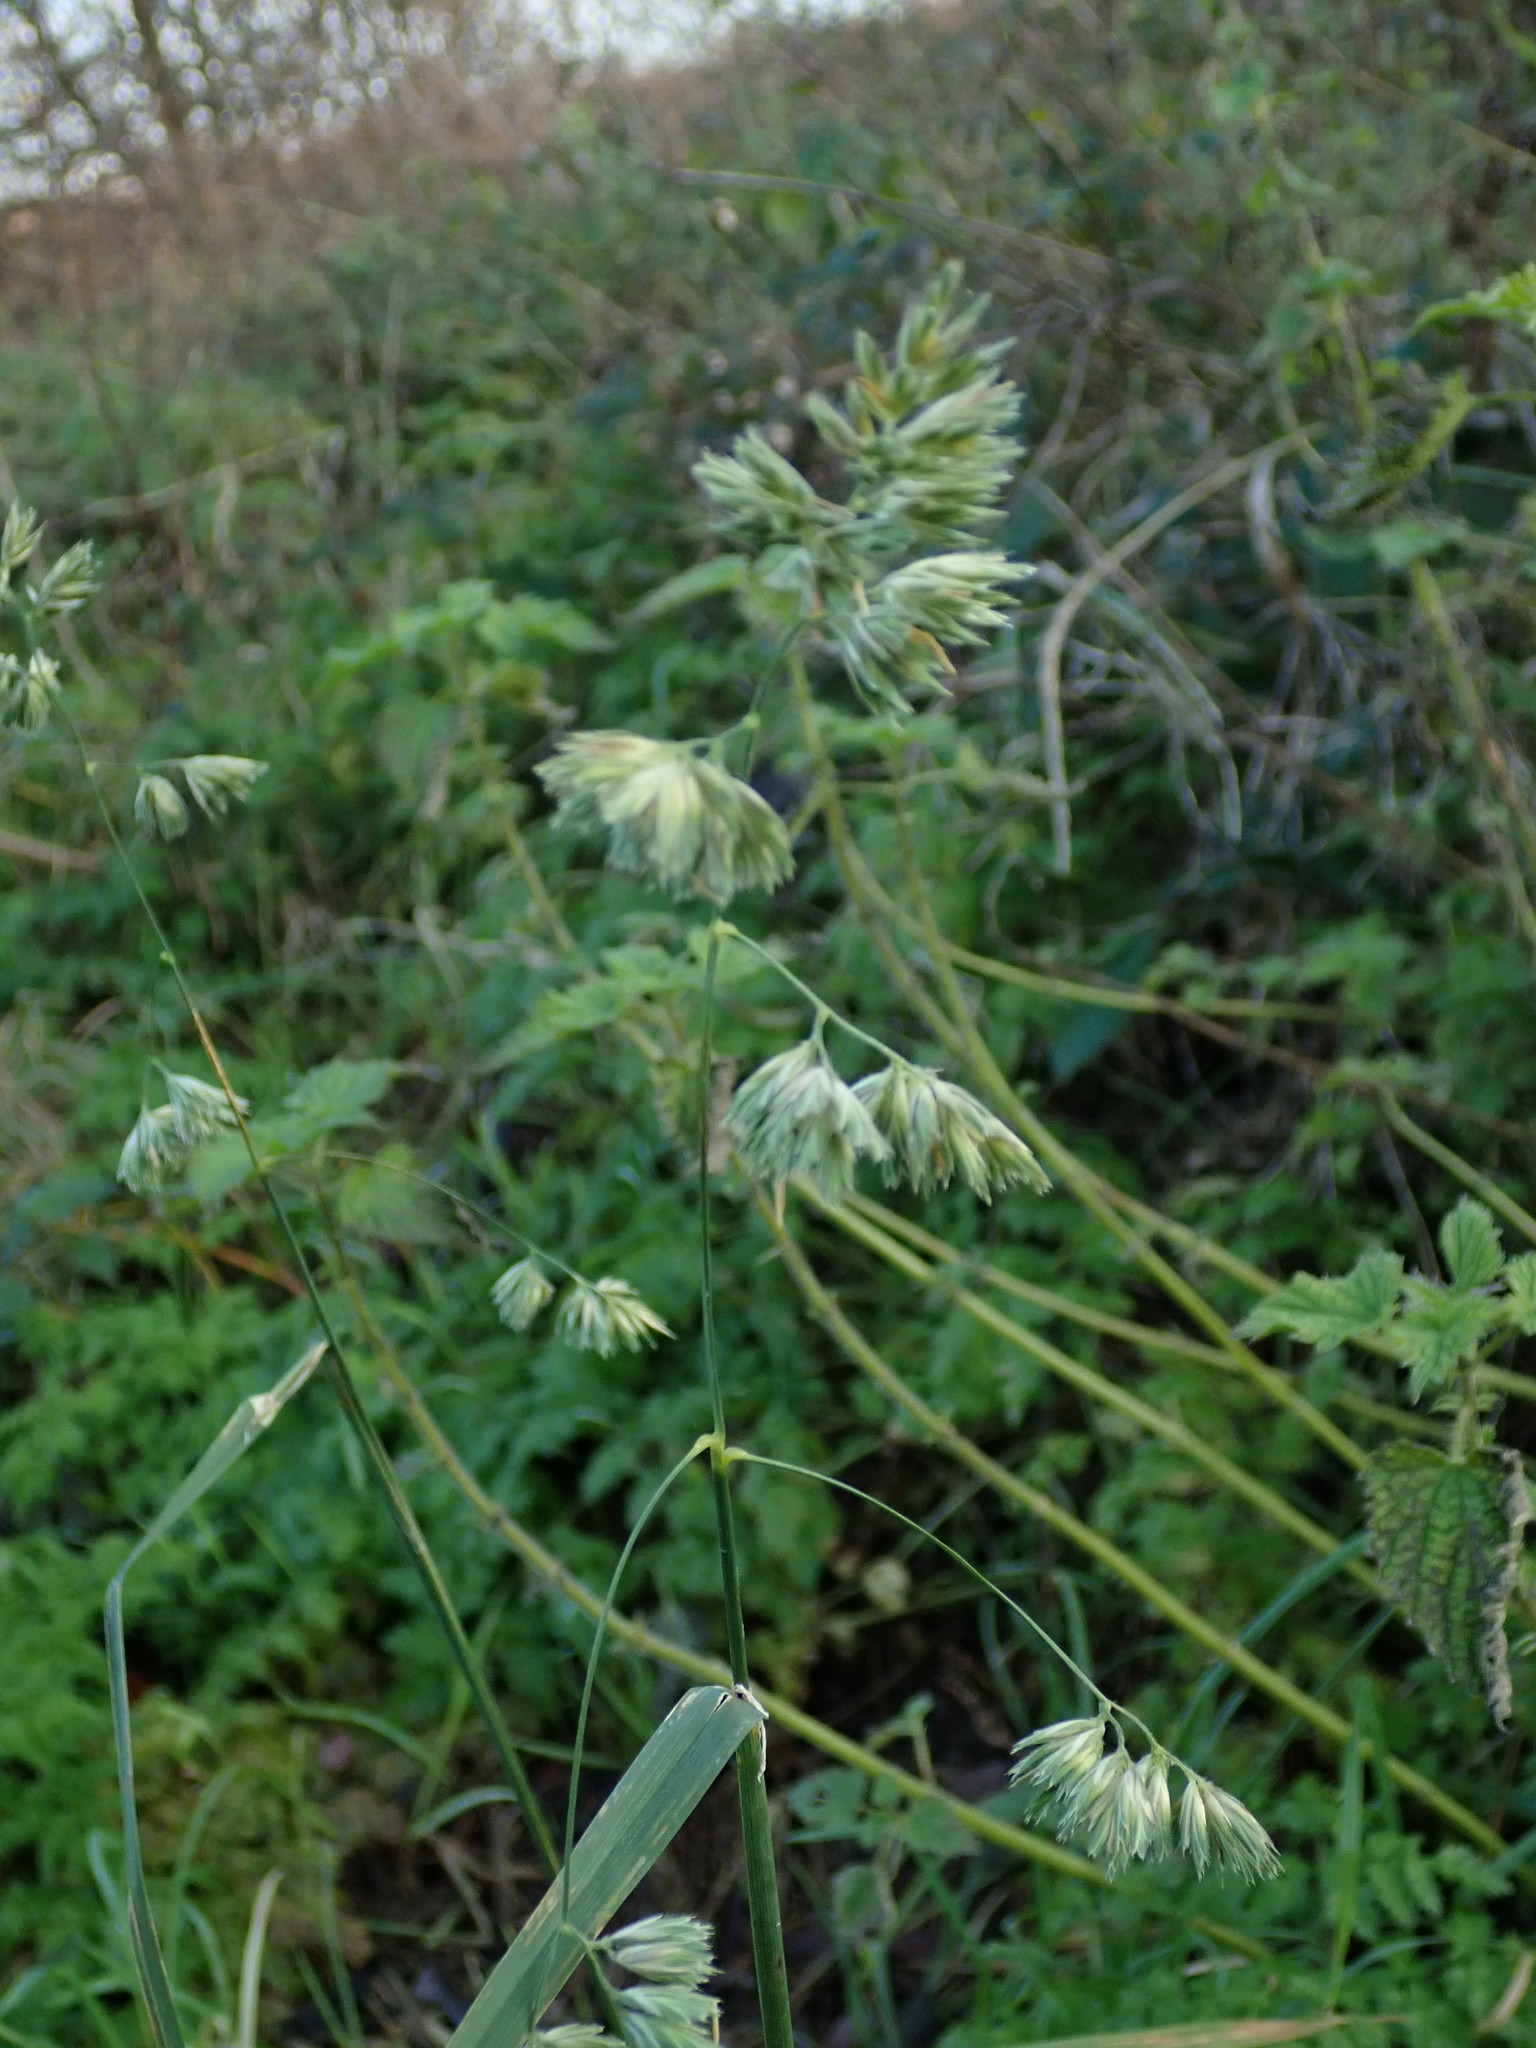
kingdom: Plantae
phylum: Tracheophyta
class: Liliopsida
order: Poales
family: Poaceae
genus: Dactylis
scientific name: Dactylis glomerata
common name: Orchardgrass
